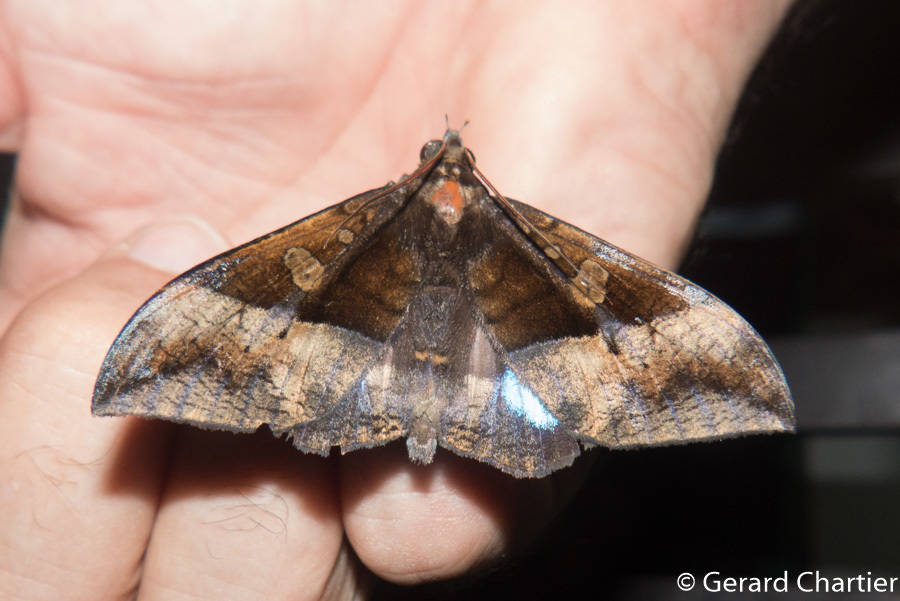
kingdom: Animalia
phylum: Arthropoda
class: Insecta
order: Lepidoptera
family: Erebidae
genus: Ischyja
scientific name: Ischyja hemiphaea
